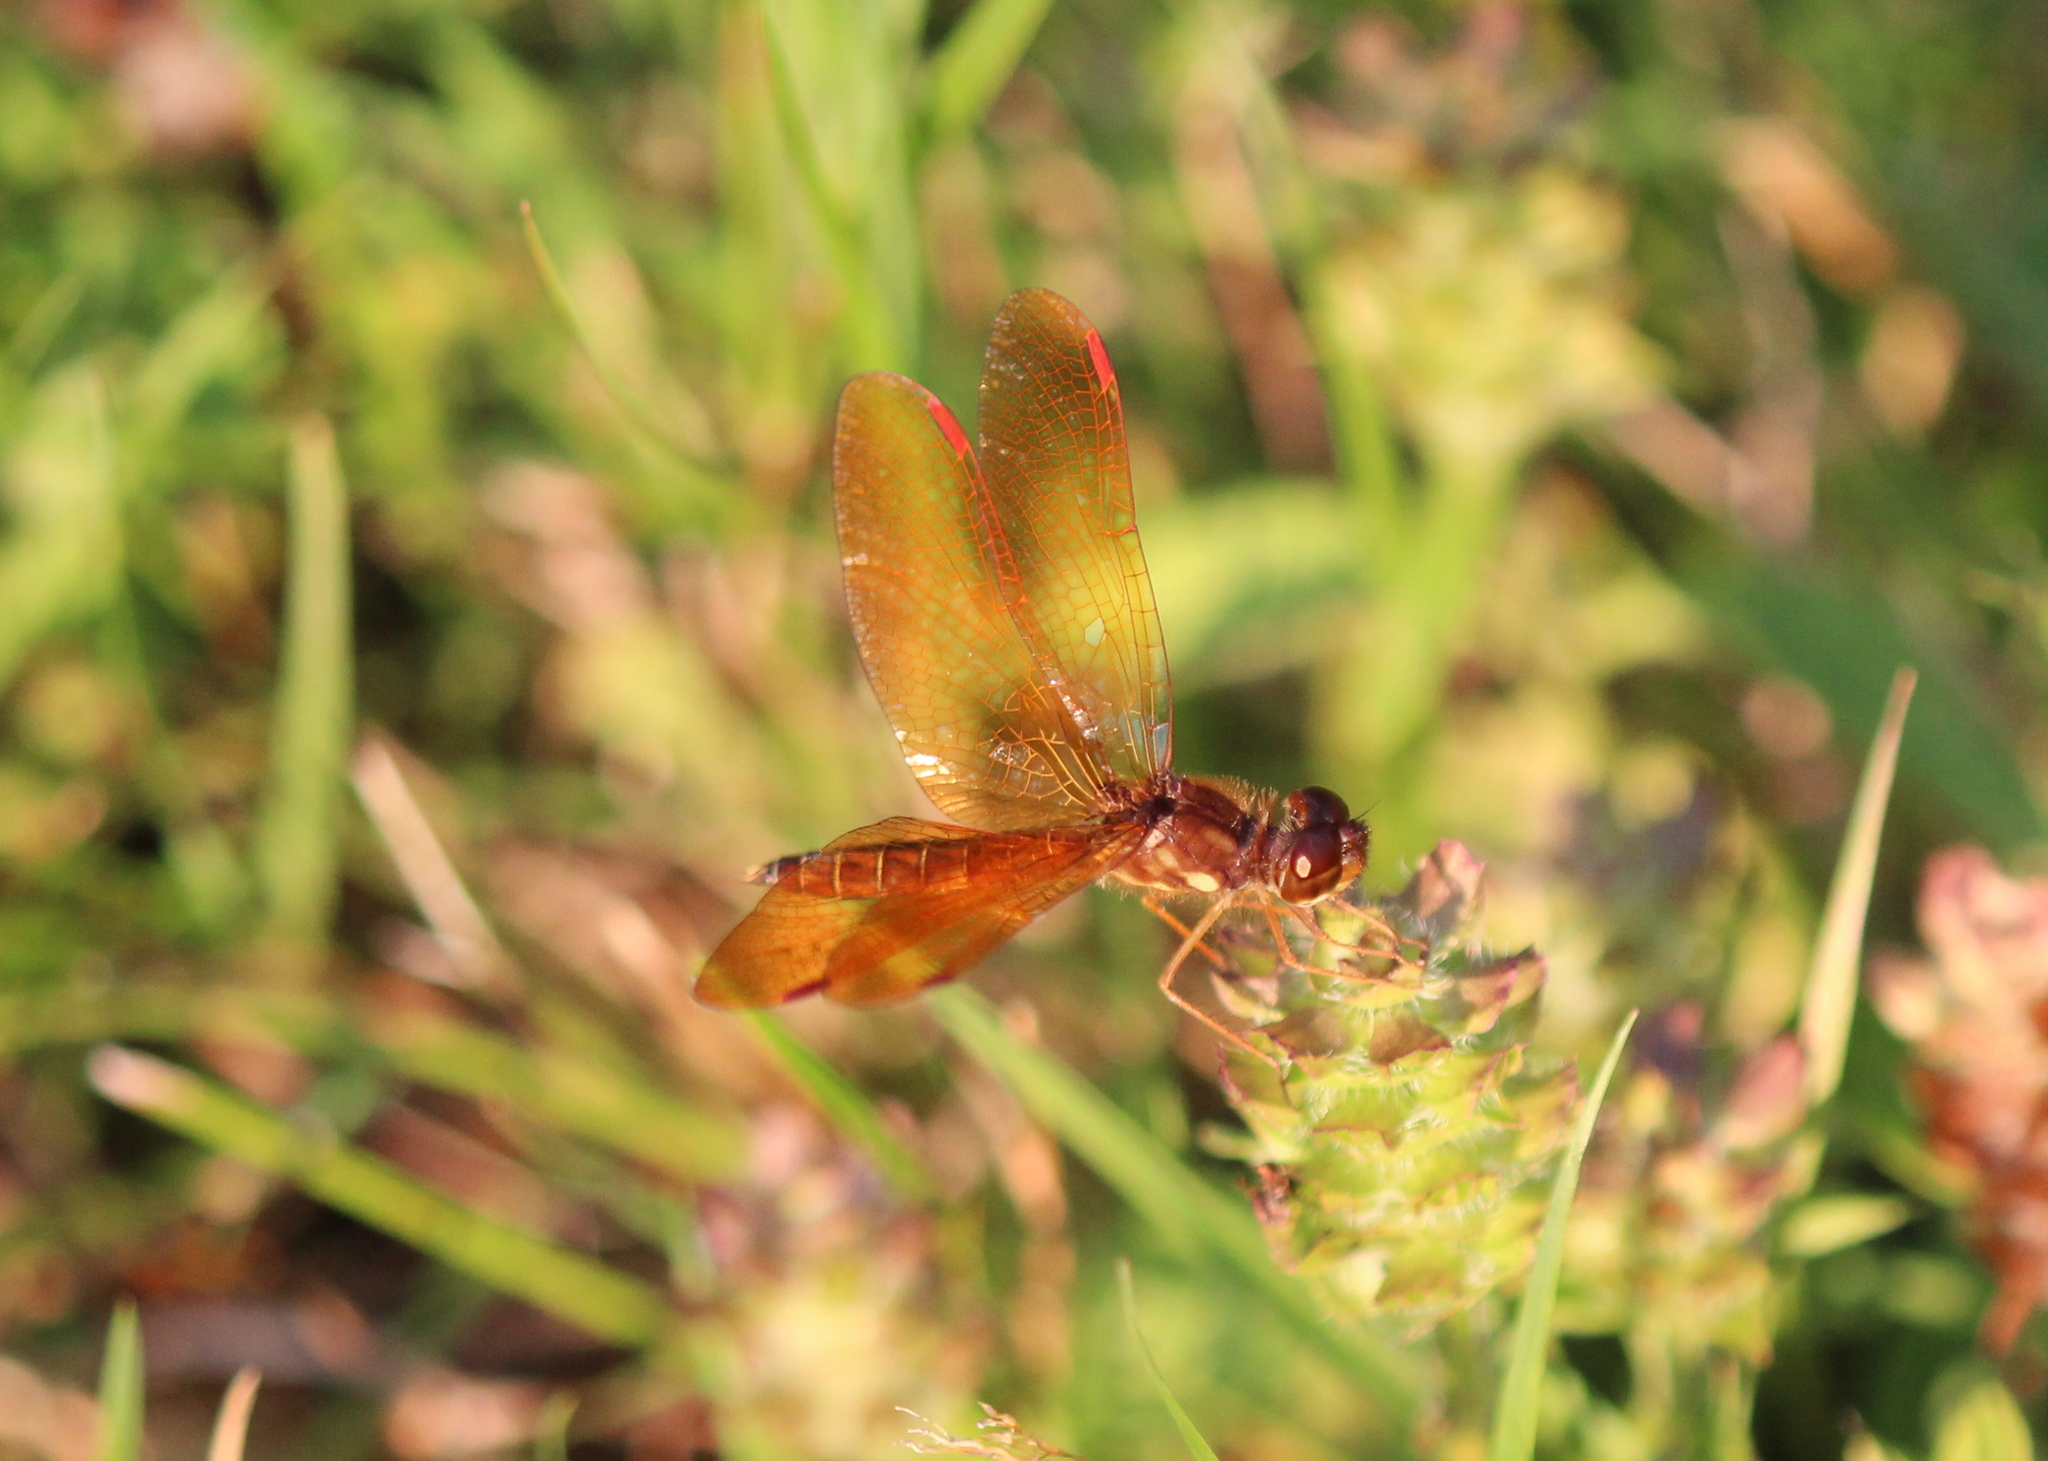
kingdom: Animalia
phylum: Arthropoda
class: Insecta
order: Odonata
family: Libellulidae
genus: Perithemis
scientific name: Perithemis tenera
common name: Eastern amberwing
